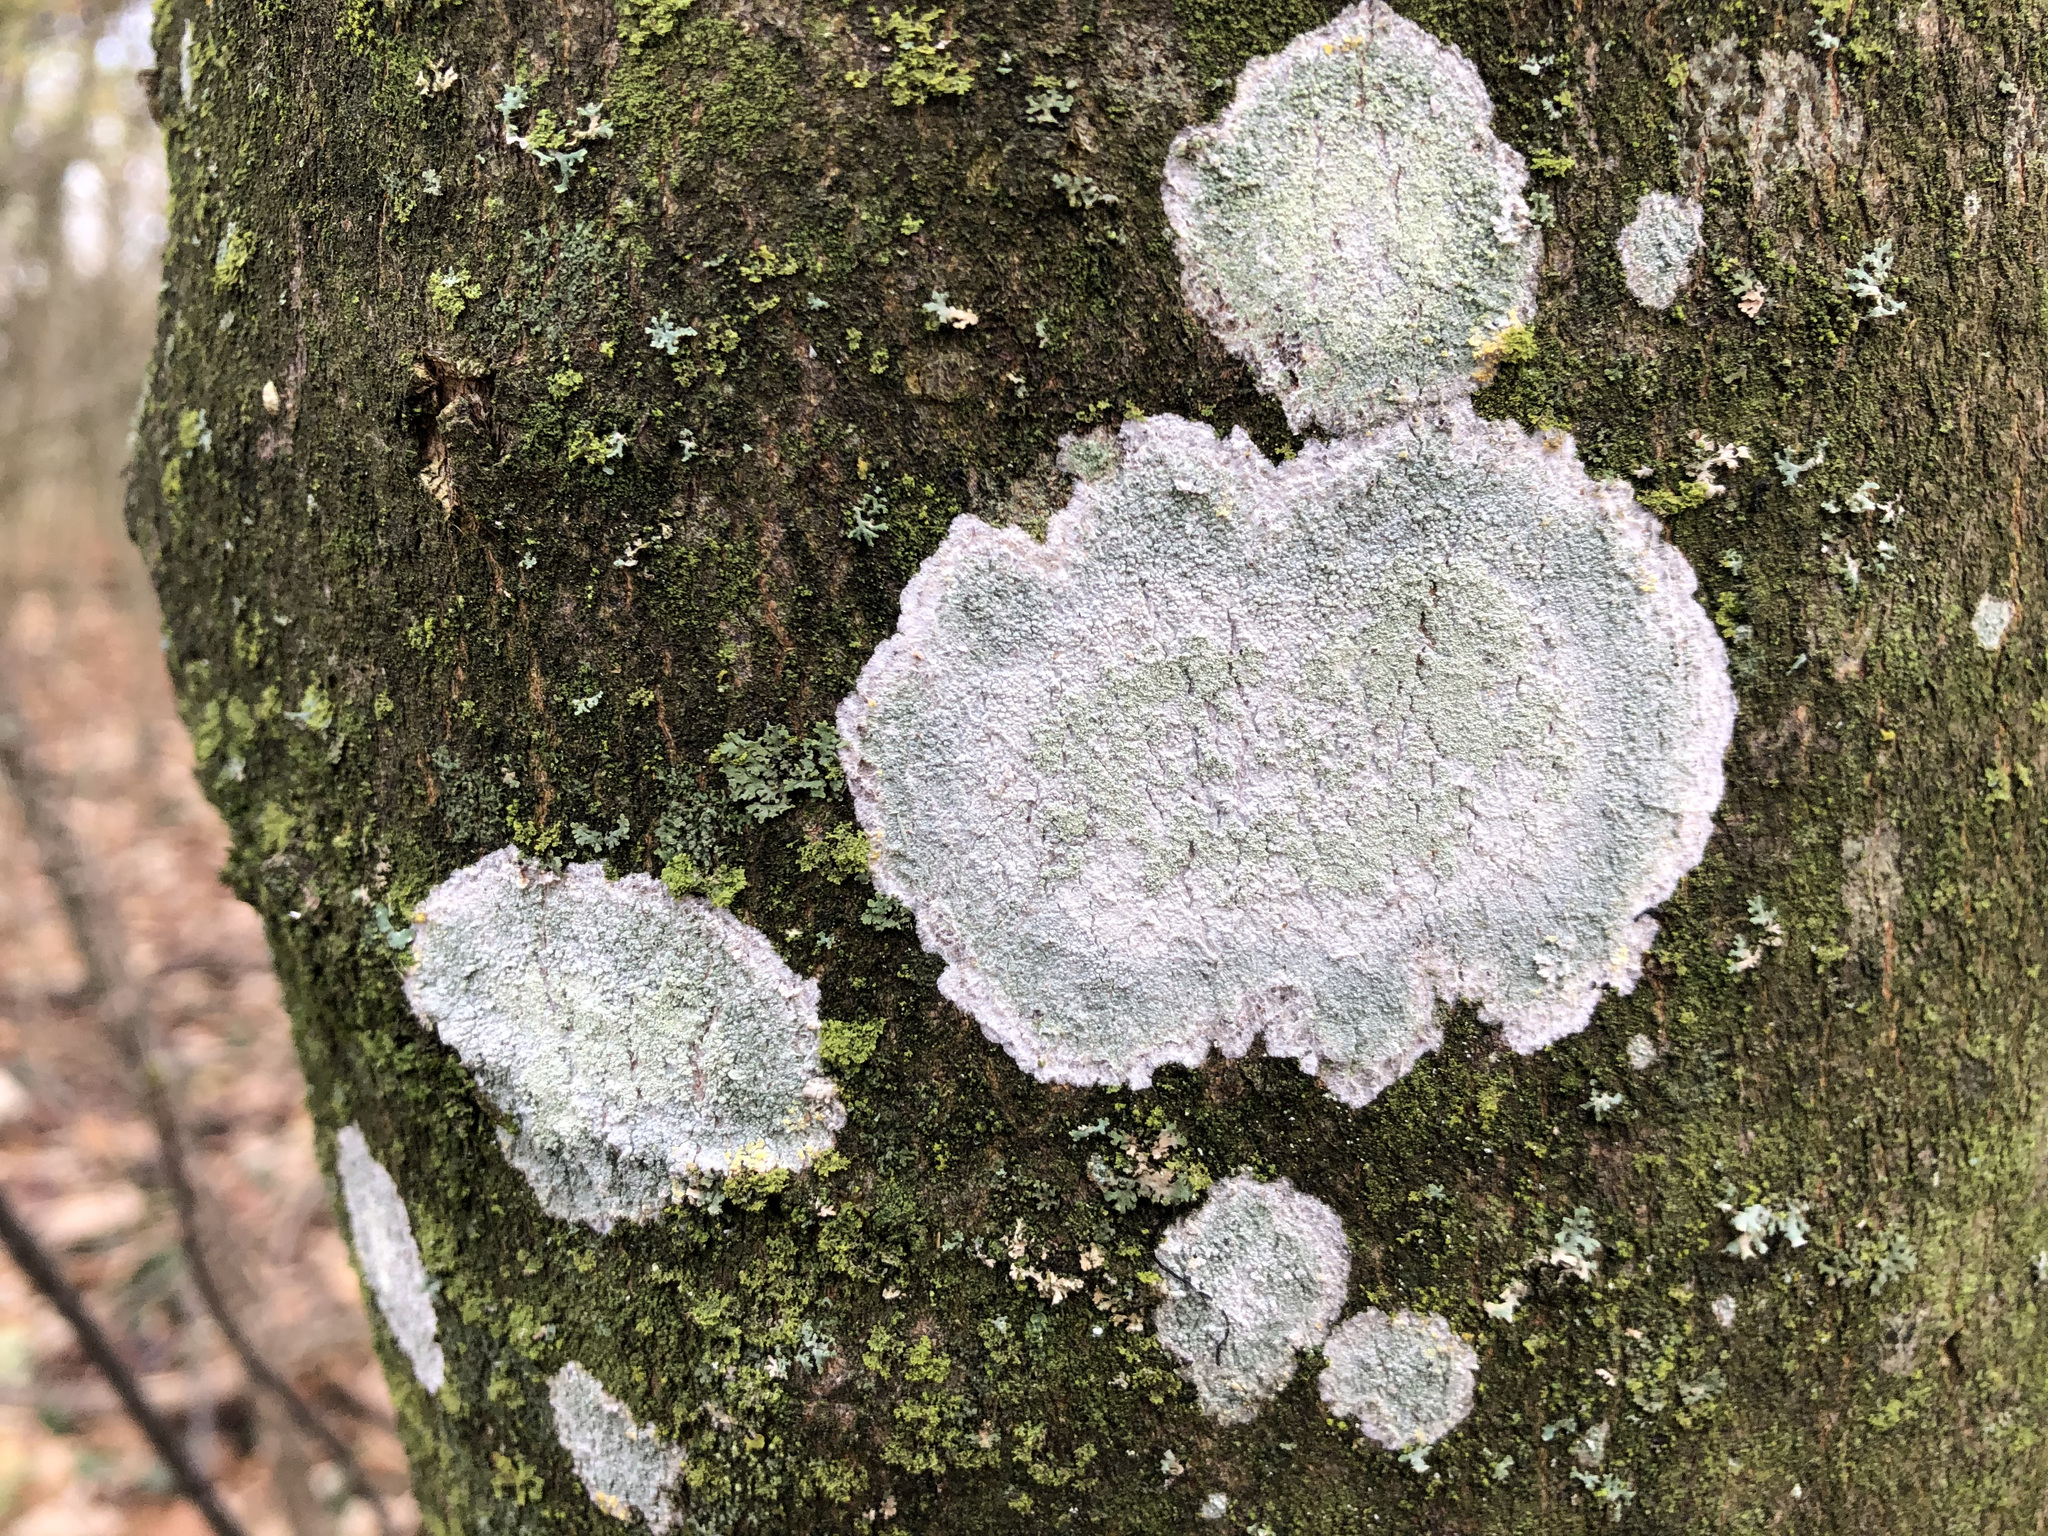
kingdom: Fungi
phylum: Ascomycota
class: Lecanoromycetes
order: Ostropales
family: Phlyctidaceae
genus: Phlyctis
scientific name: Phlyctis argena
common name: Whitewash lichen
